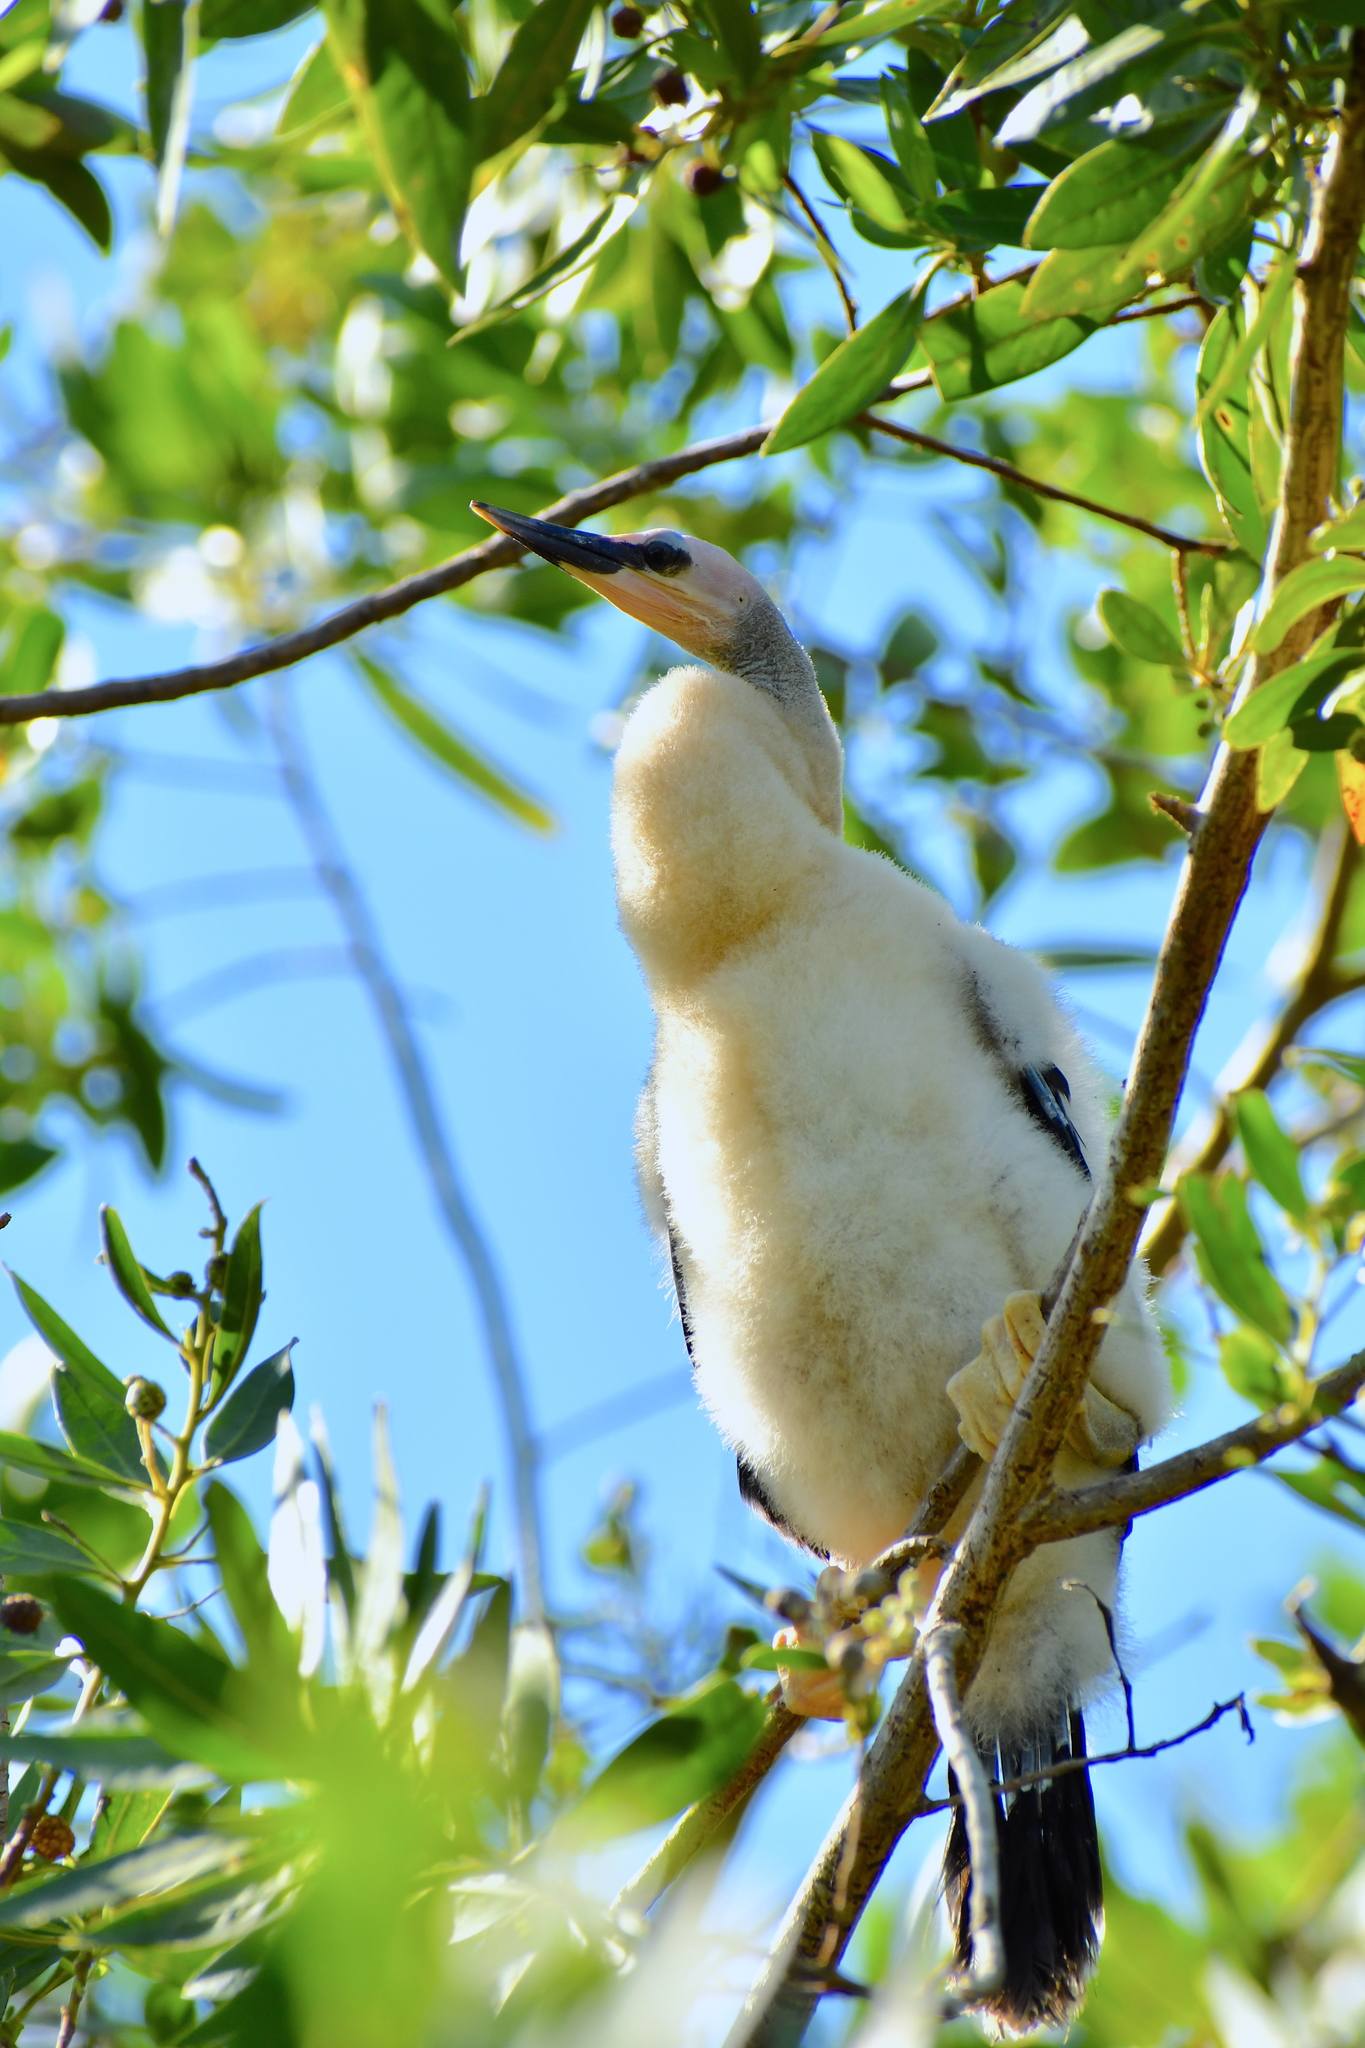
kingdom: Animalia
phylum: Chordata
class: Aves
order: Suliformes
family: Anhingidae
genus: Anhinga
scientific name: Anhinga anhinga
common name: Anhinga
